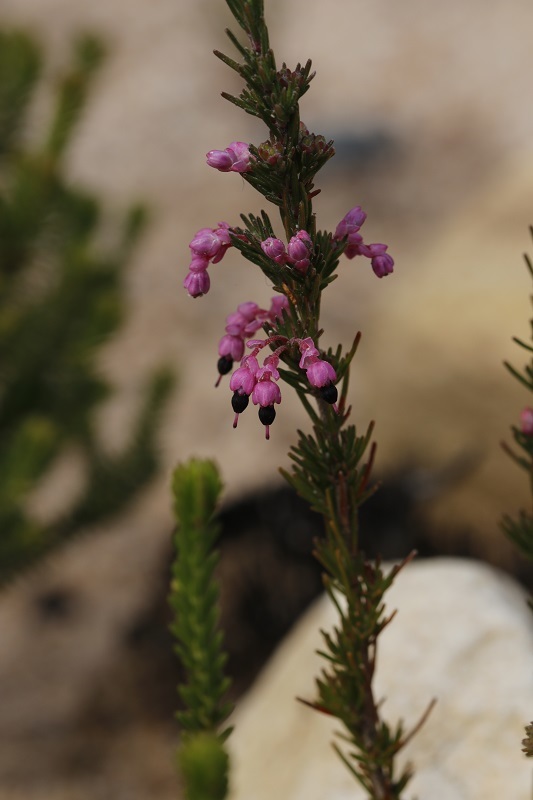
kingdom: Plantae
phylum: Tracheophyta
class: Magnoliopsida
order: Ericales
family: Ericaceae
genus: Erica
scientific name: Erica placentiflora
